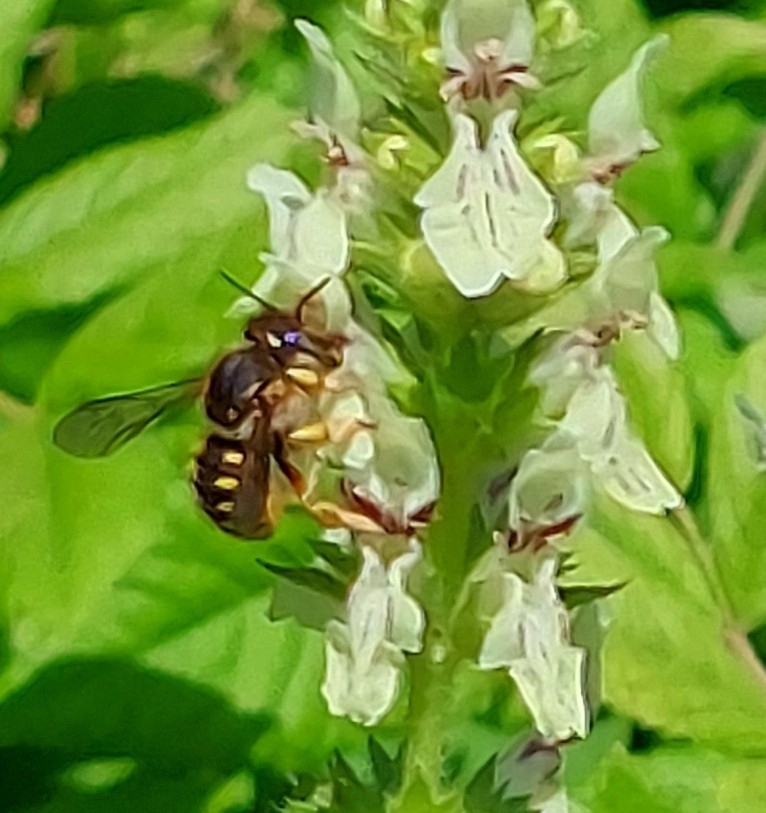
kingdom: Animalia
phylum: Arthropoda
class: Insecta
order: Hymenoptera
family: Megachilidae
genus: Anthidium
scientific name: Anthidium manicatum
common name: Wool carder bee
